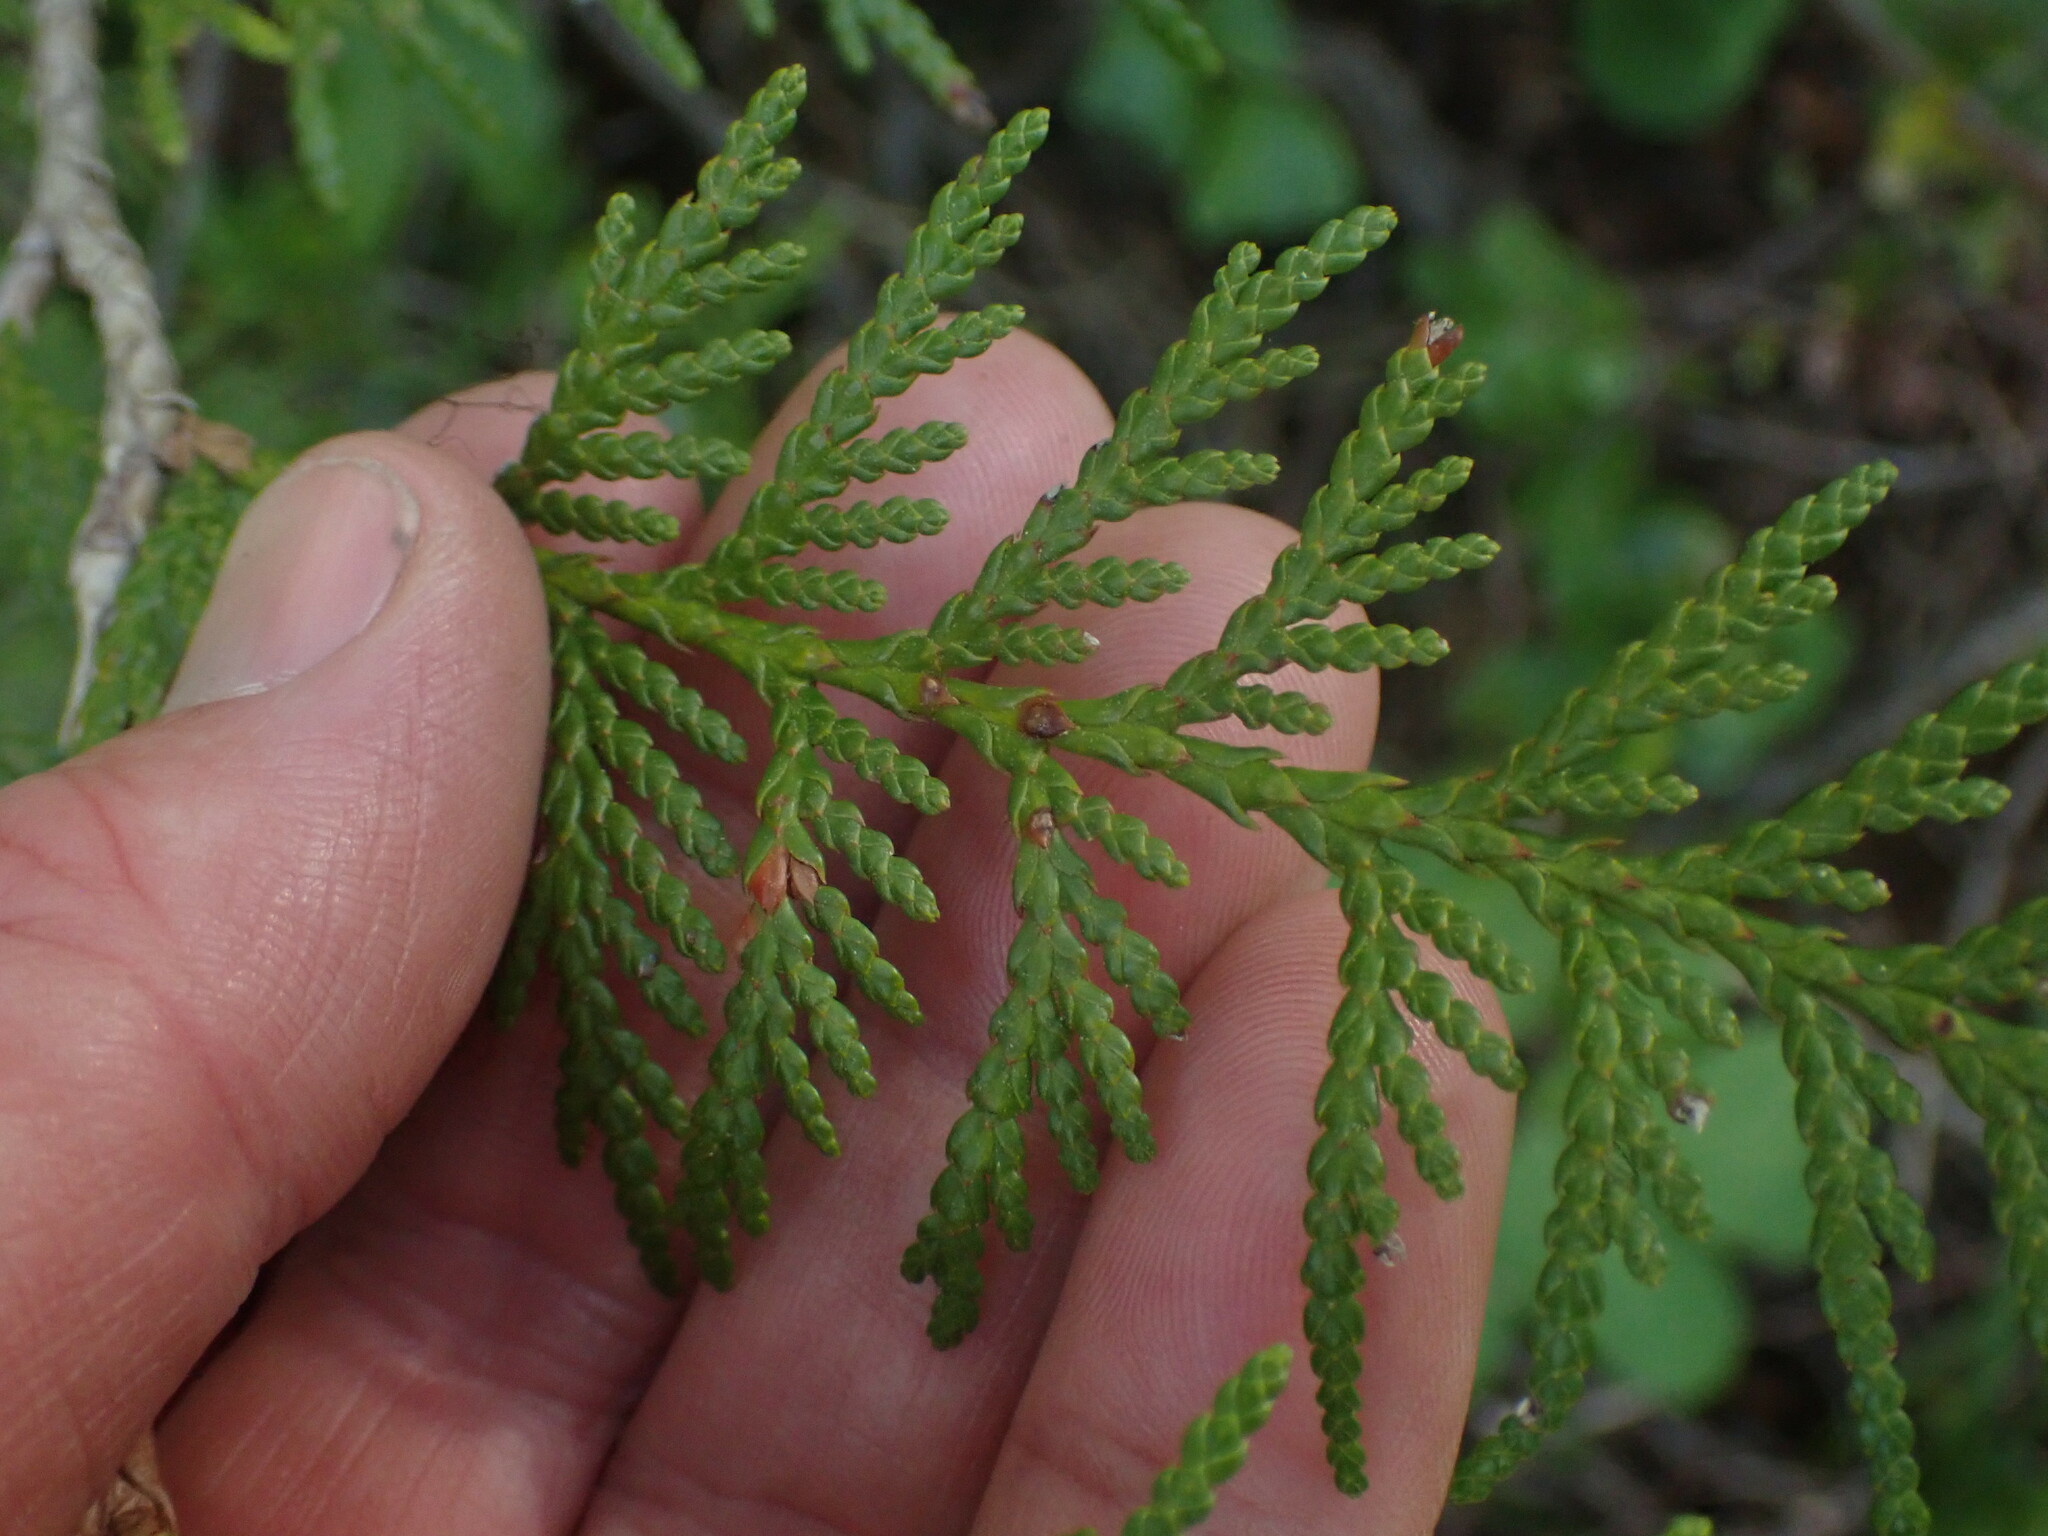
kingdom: Plantae
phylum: Tracheophyta
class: Pinopsida
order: Pinales
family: Cupressaceae
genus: Thuja
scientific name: Thuja plicata
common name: Western red-cedar
